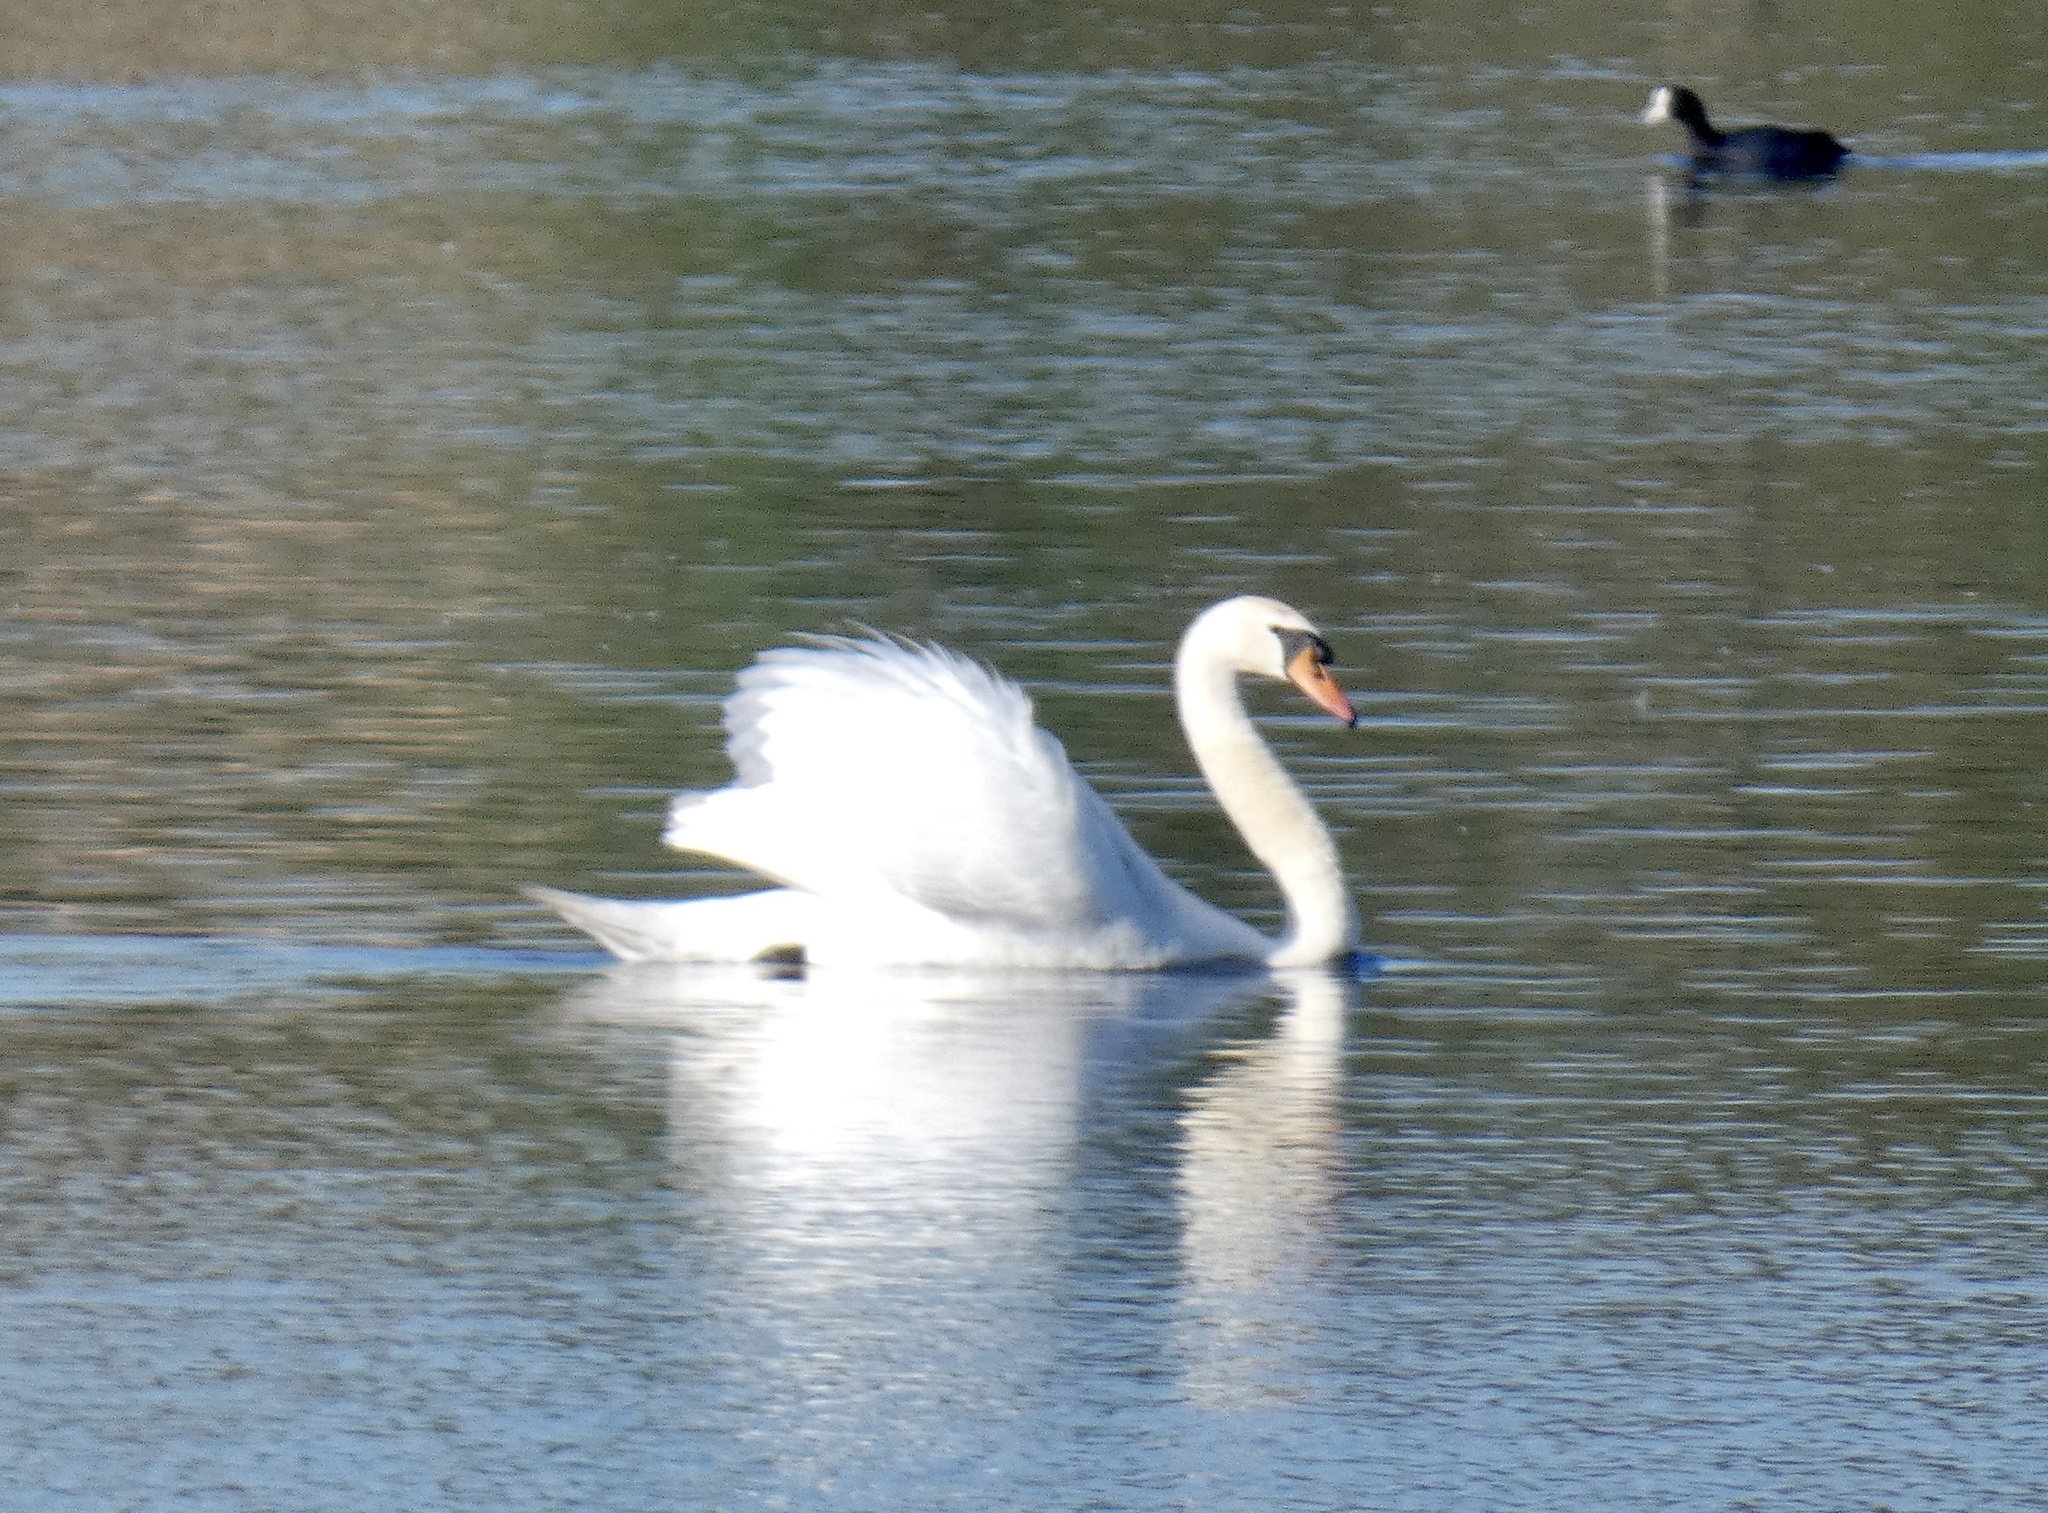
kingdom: Animalia
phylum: Chordata
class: Aves
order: Anseriformes
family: Anatidae
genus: Cygnus
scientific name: Cygnus olor
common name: Mute swan
